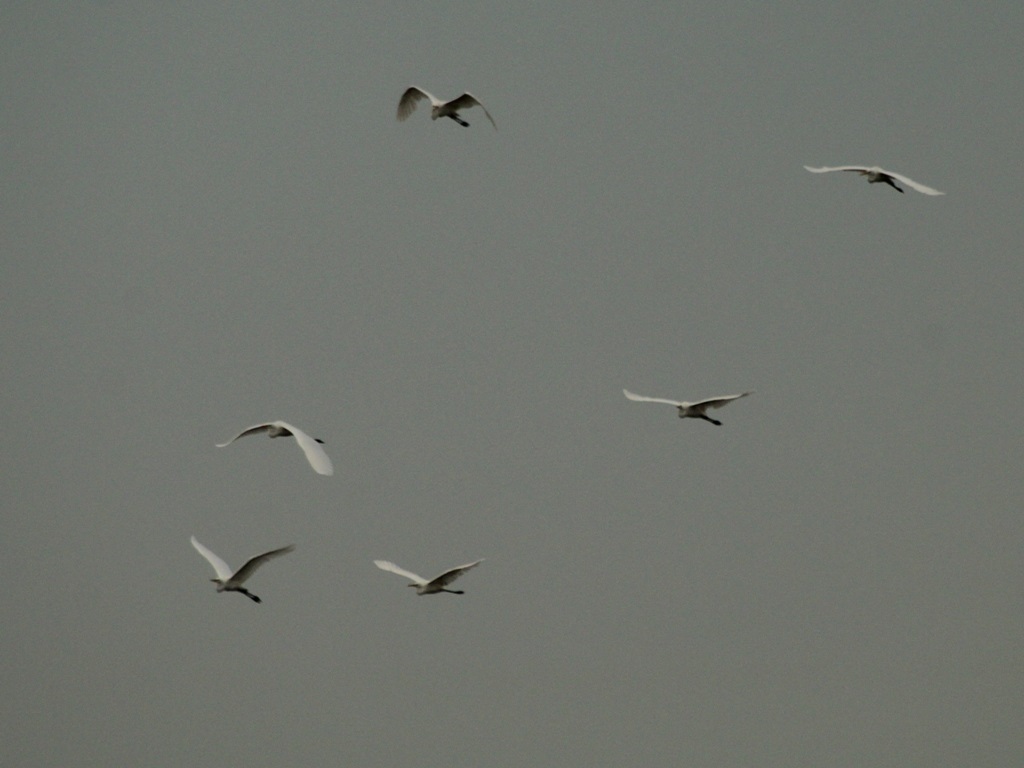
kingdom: Animalia
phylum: Chordata
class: Aves
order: Pelecaniformes
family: Ardeidae
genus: Ardea
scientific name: Ardea alba
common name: Great egret
